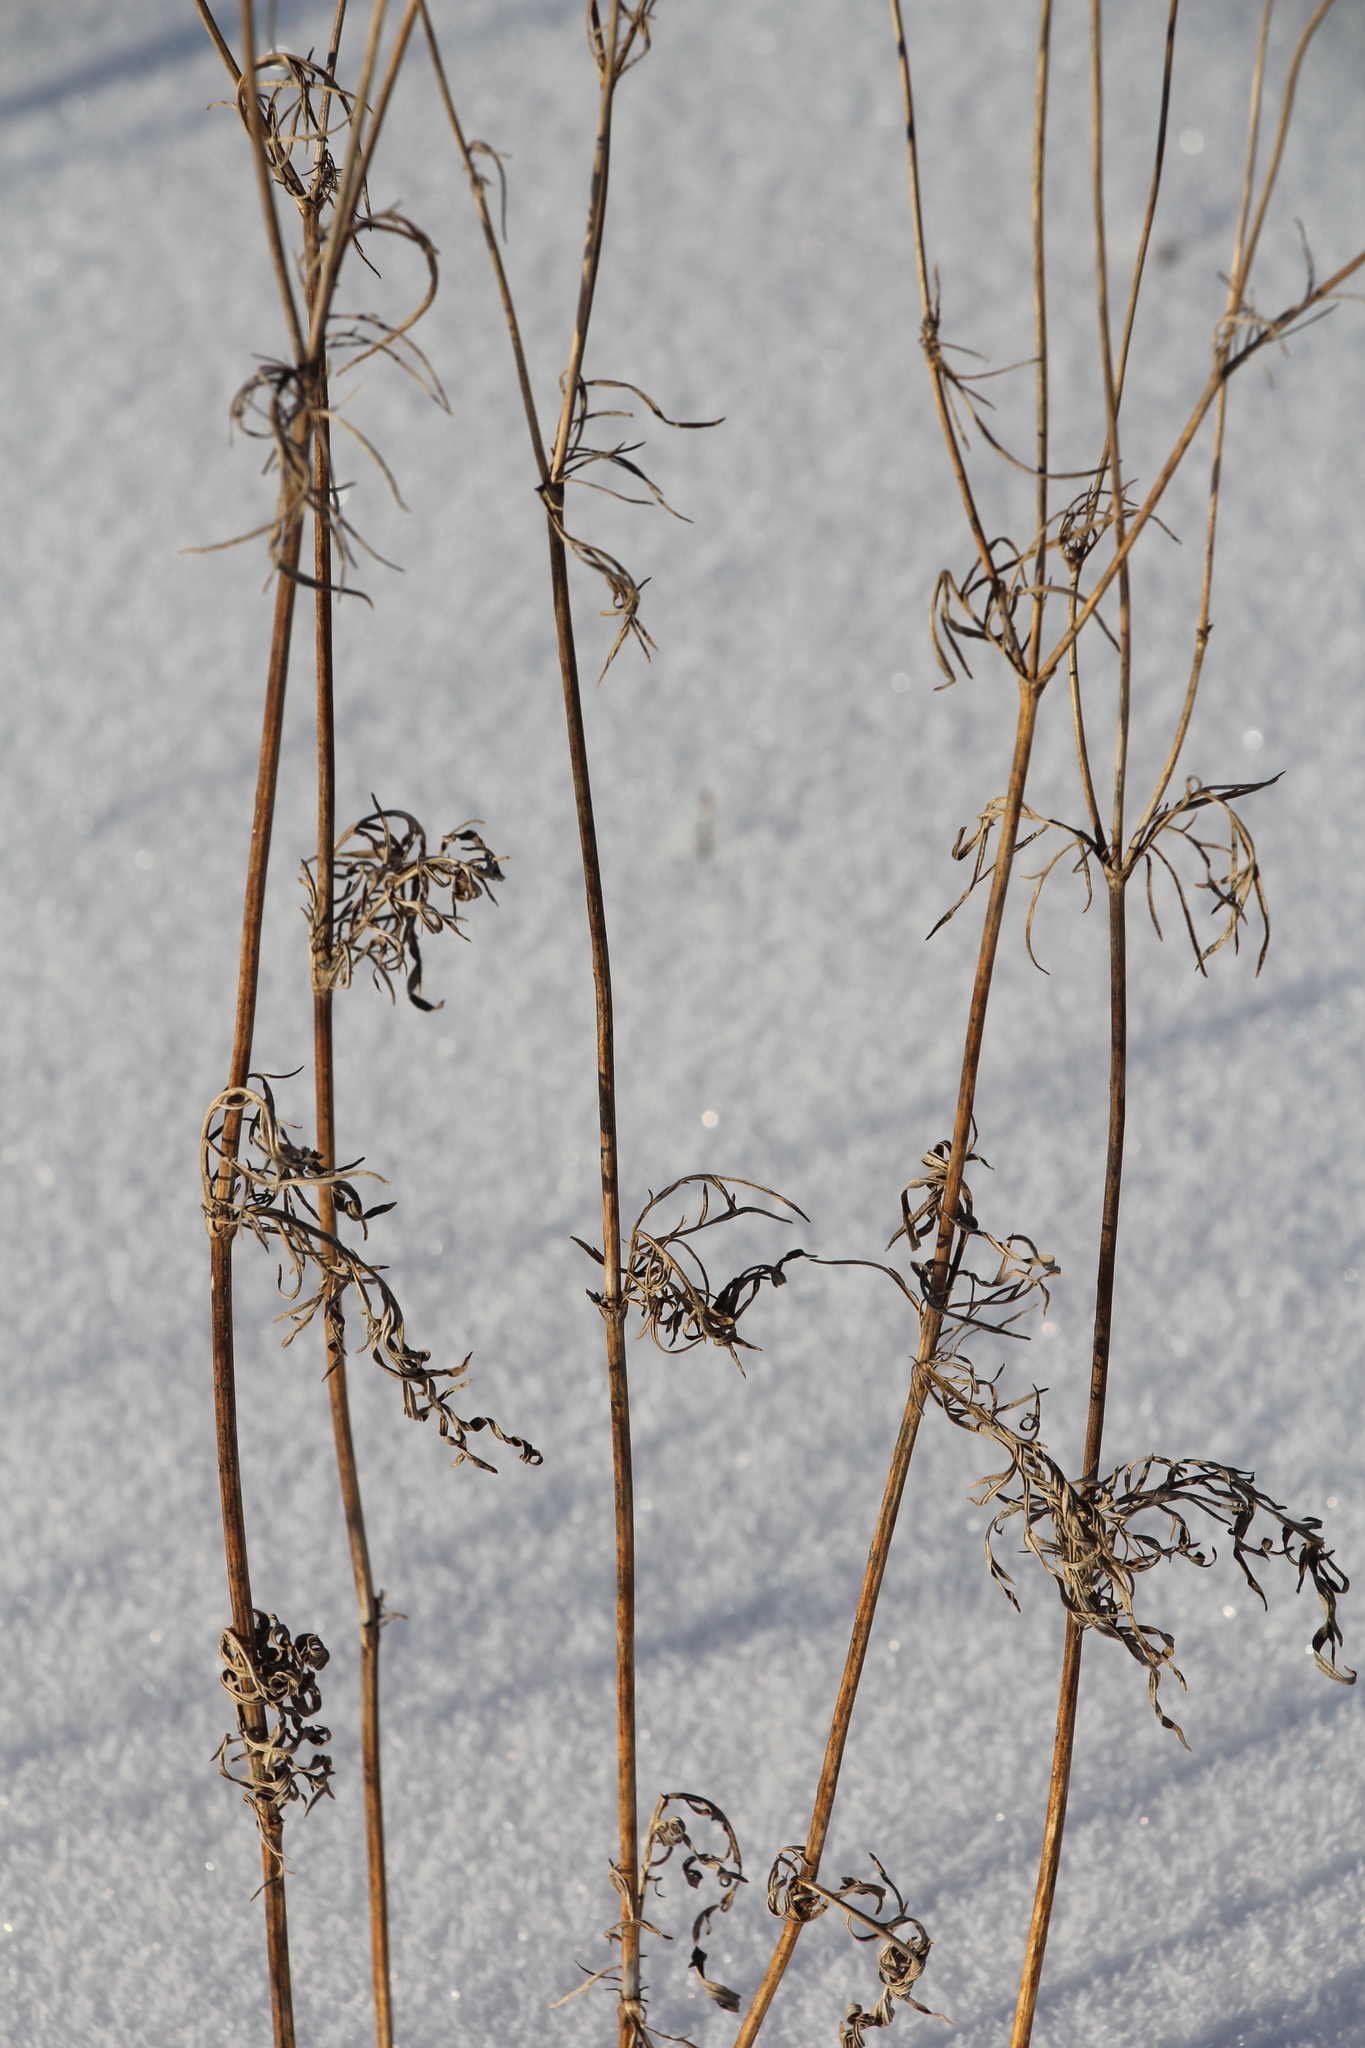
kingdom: Plantae
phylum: Tracheophyta
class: Magnoliopsida
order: Dipsacales
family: Caprifoliaceae
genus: Scabiosa
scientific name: Scabiosa ochroleuca
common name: Cream pincushions
